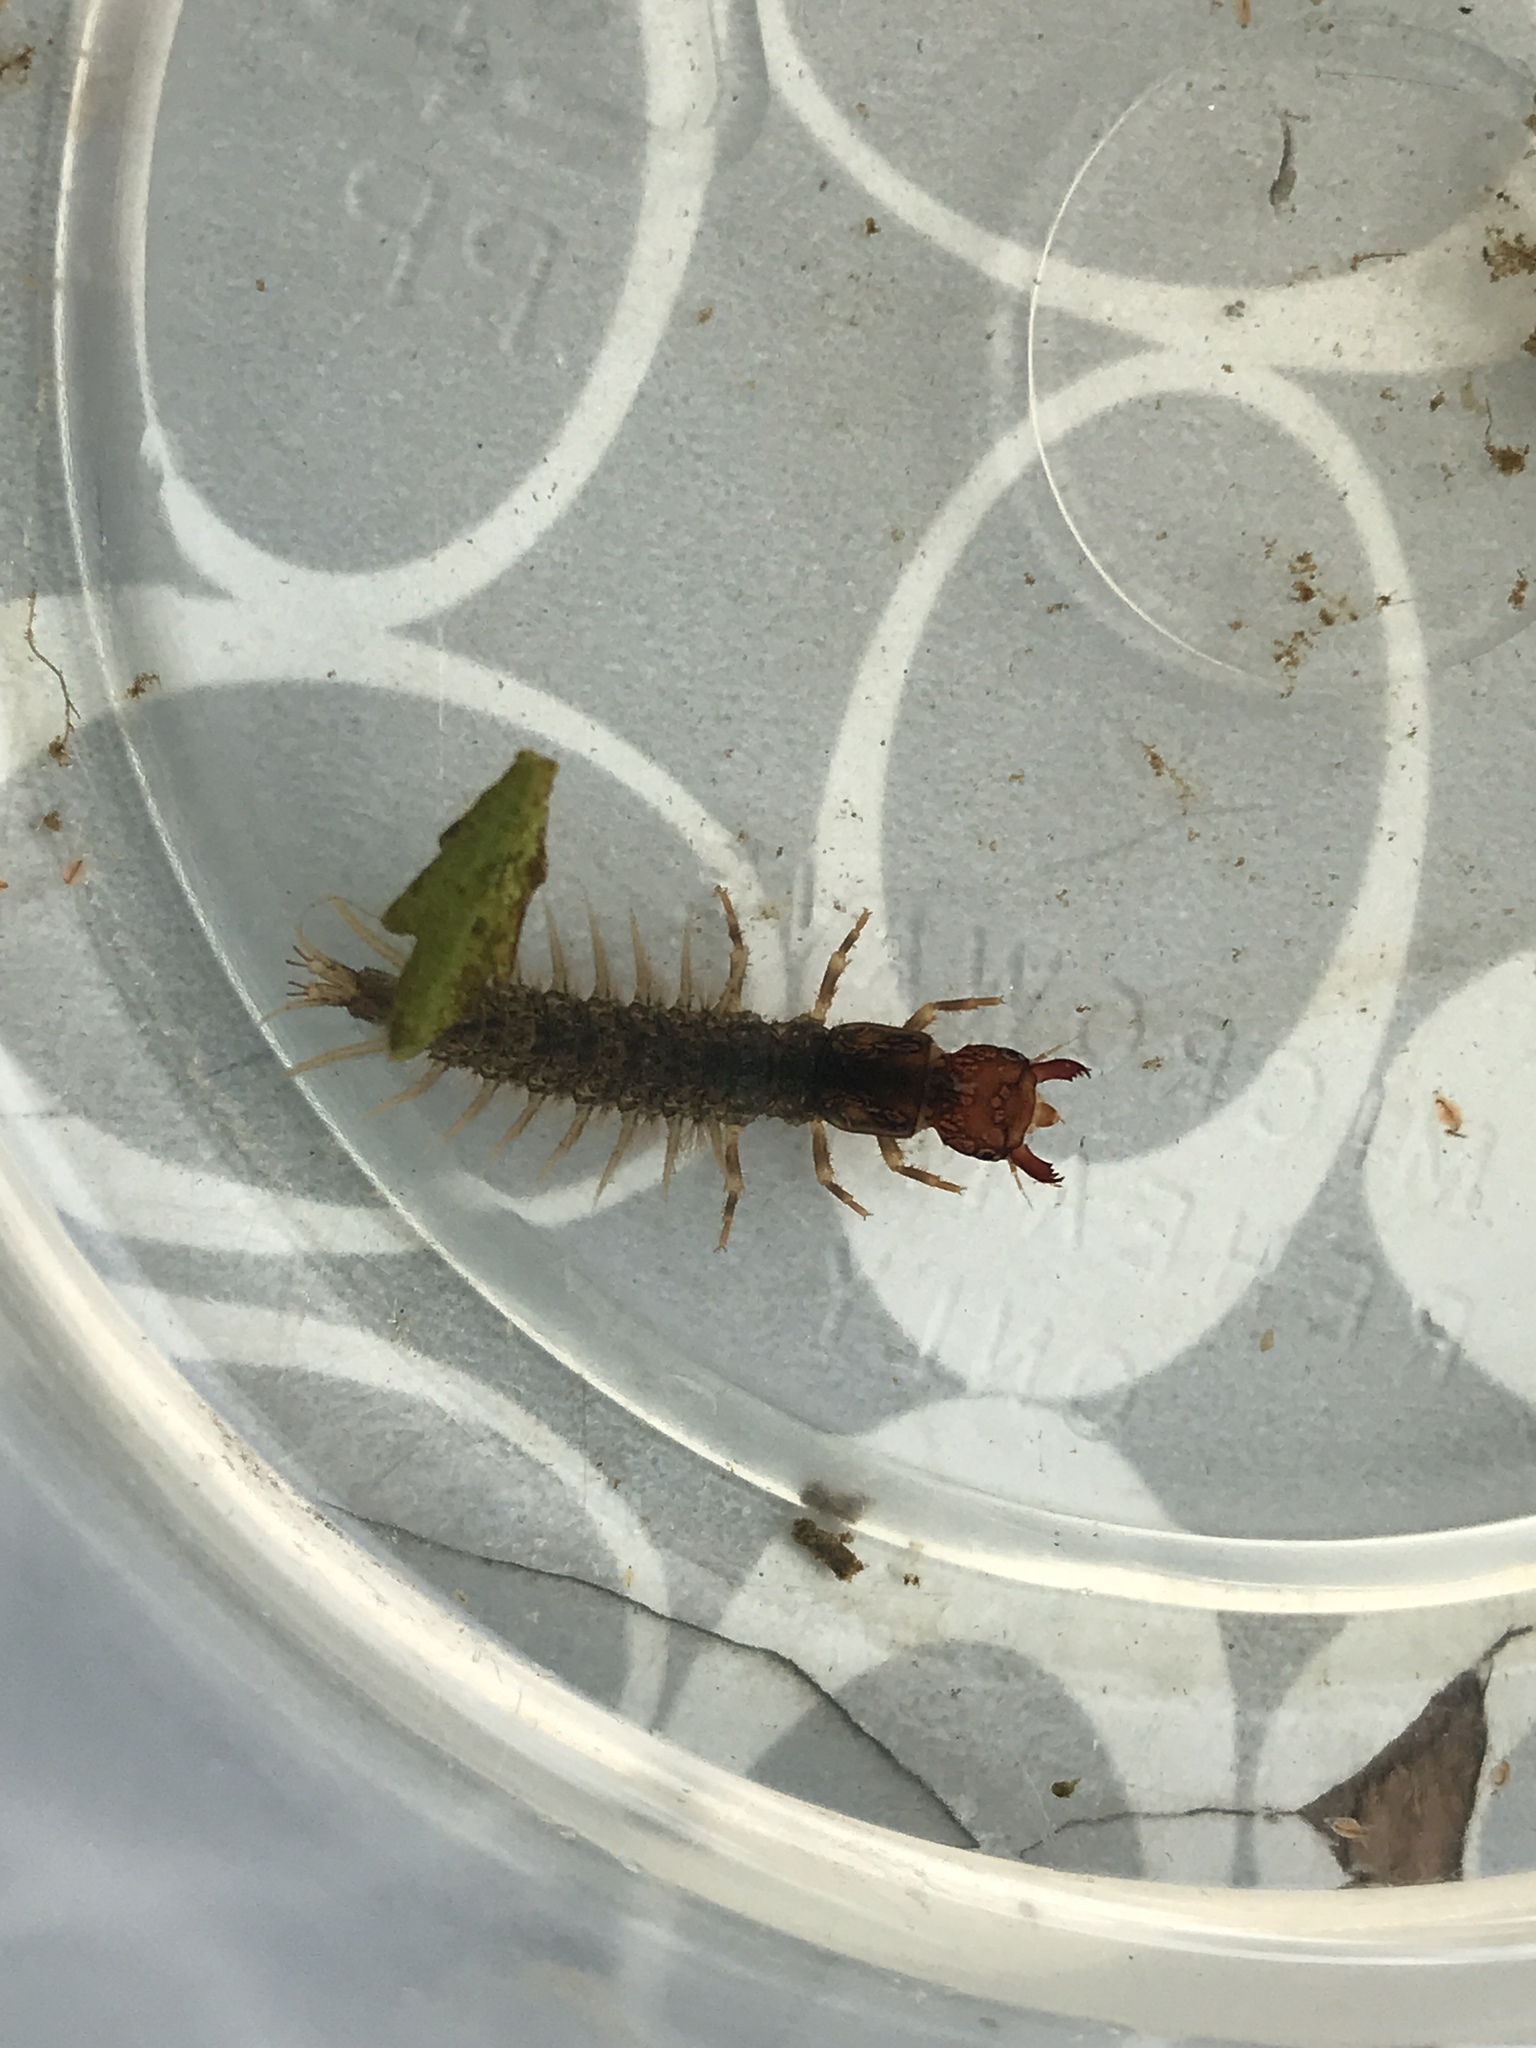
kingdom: Animalia
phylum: Arthropoda
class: Insecta
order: Megaloptera
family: Corydalidae
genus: Corydalus
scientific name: Corydalus cornutus
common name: Dobsonfly
